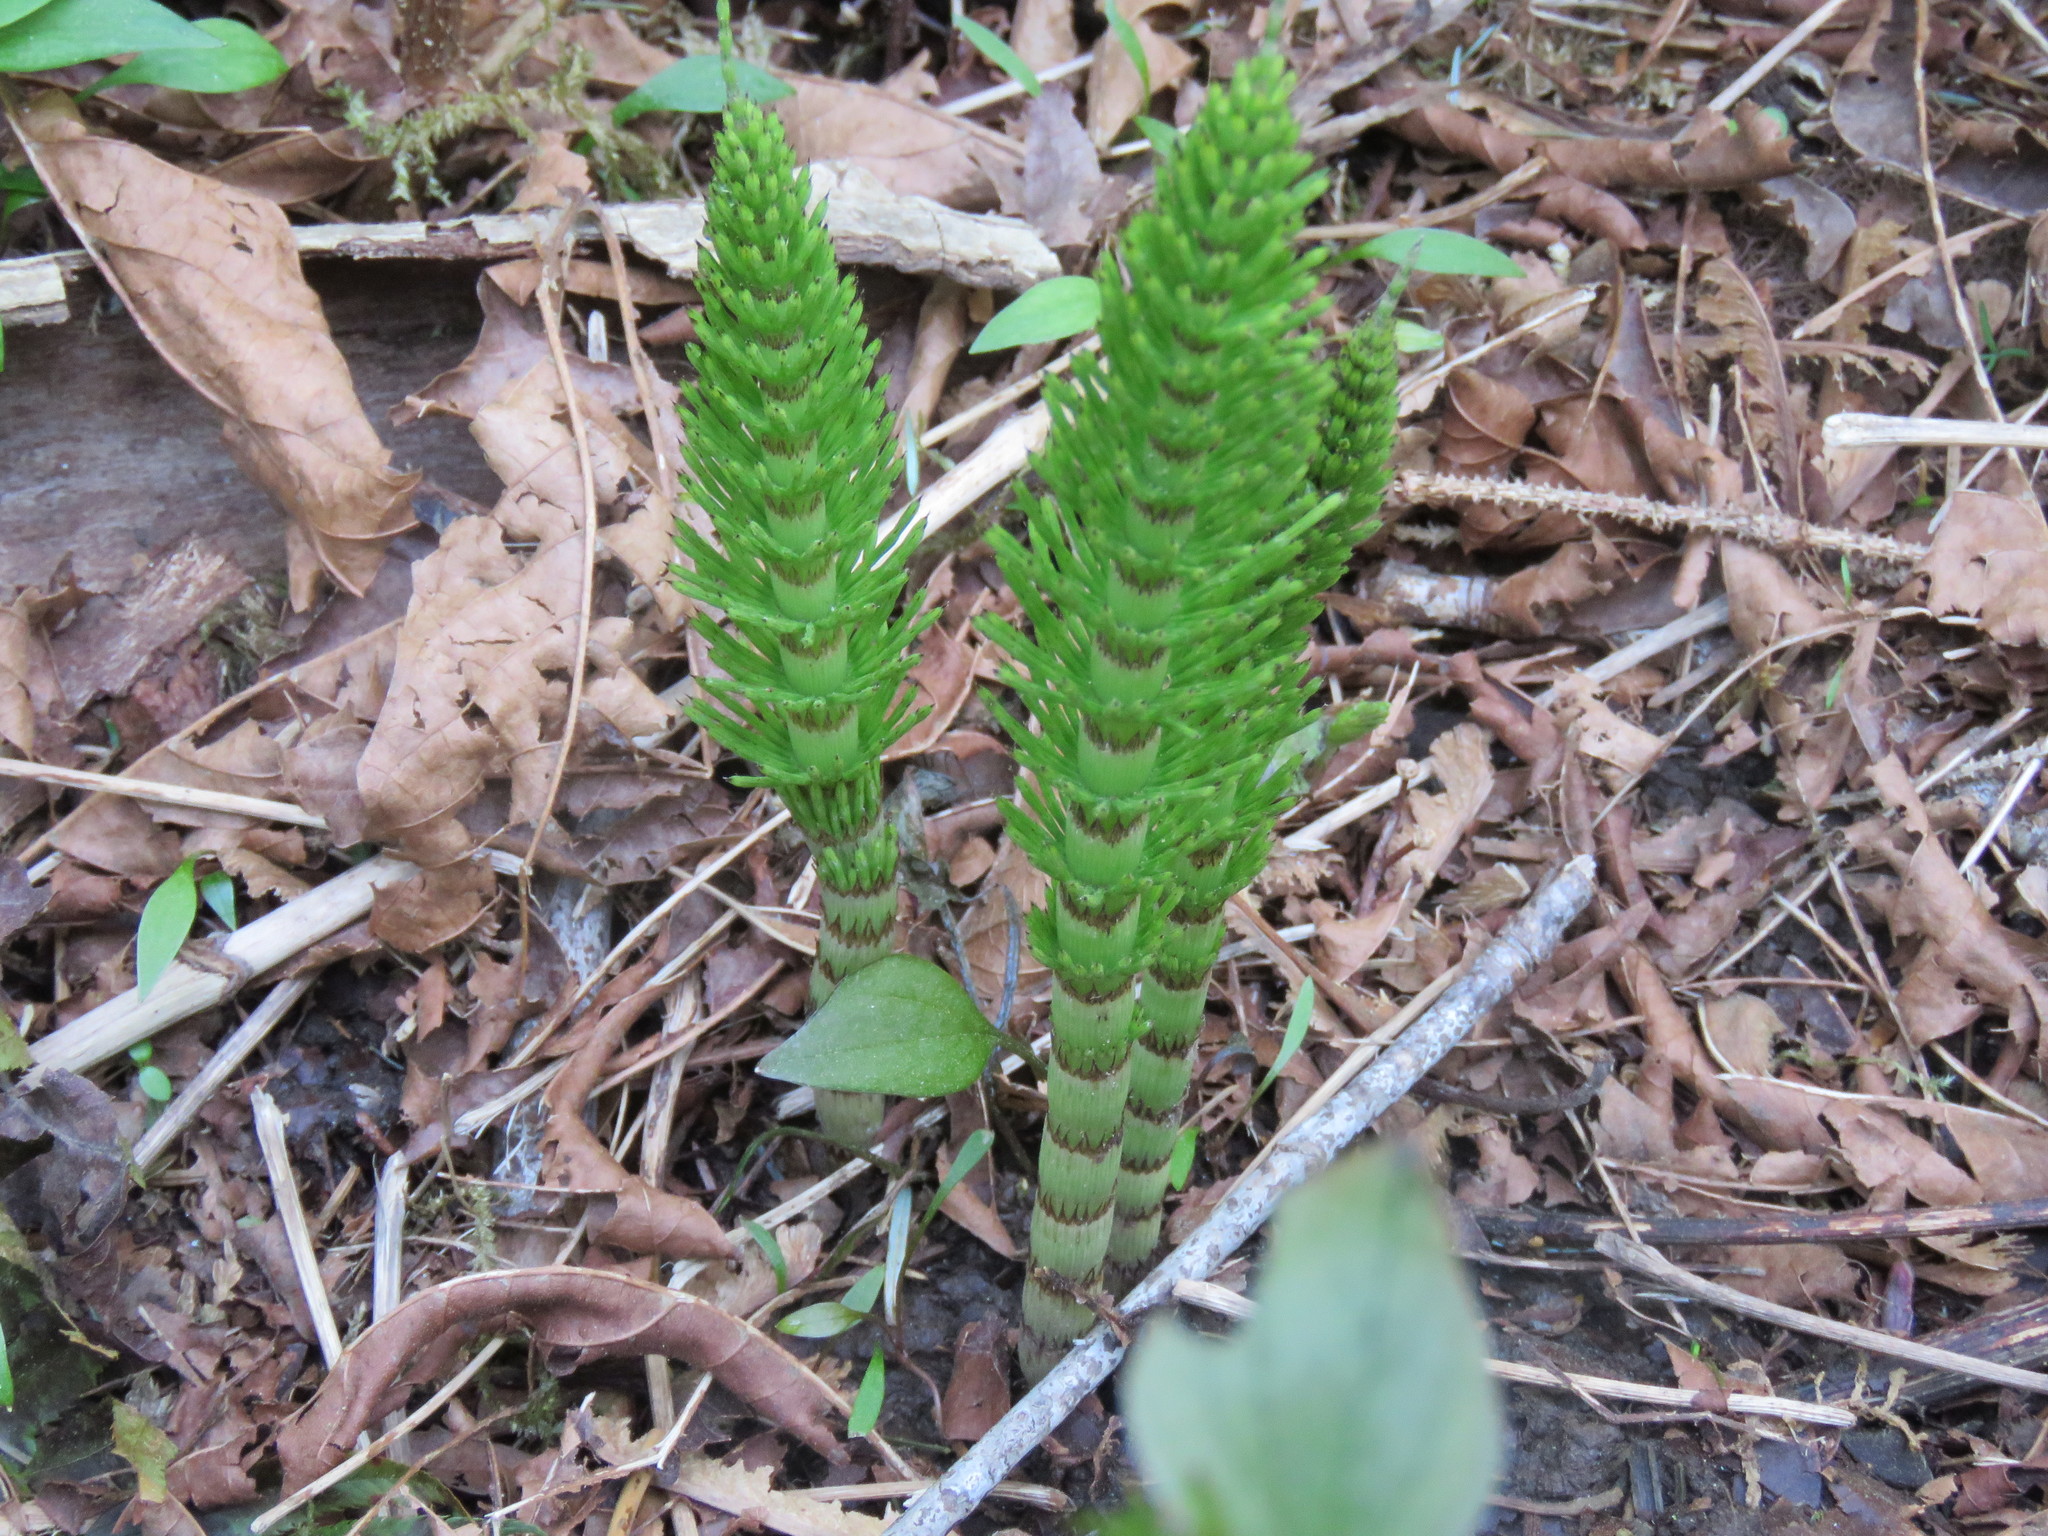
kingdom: Plantae
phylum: Tracheophyta
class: Polypodiopsida
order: Equisetales
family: Equisetaceae
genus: Equisetum
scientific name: Equisetum braunii
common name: Braun's horsetail
